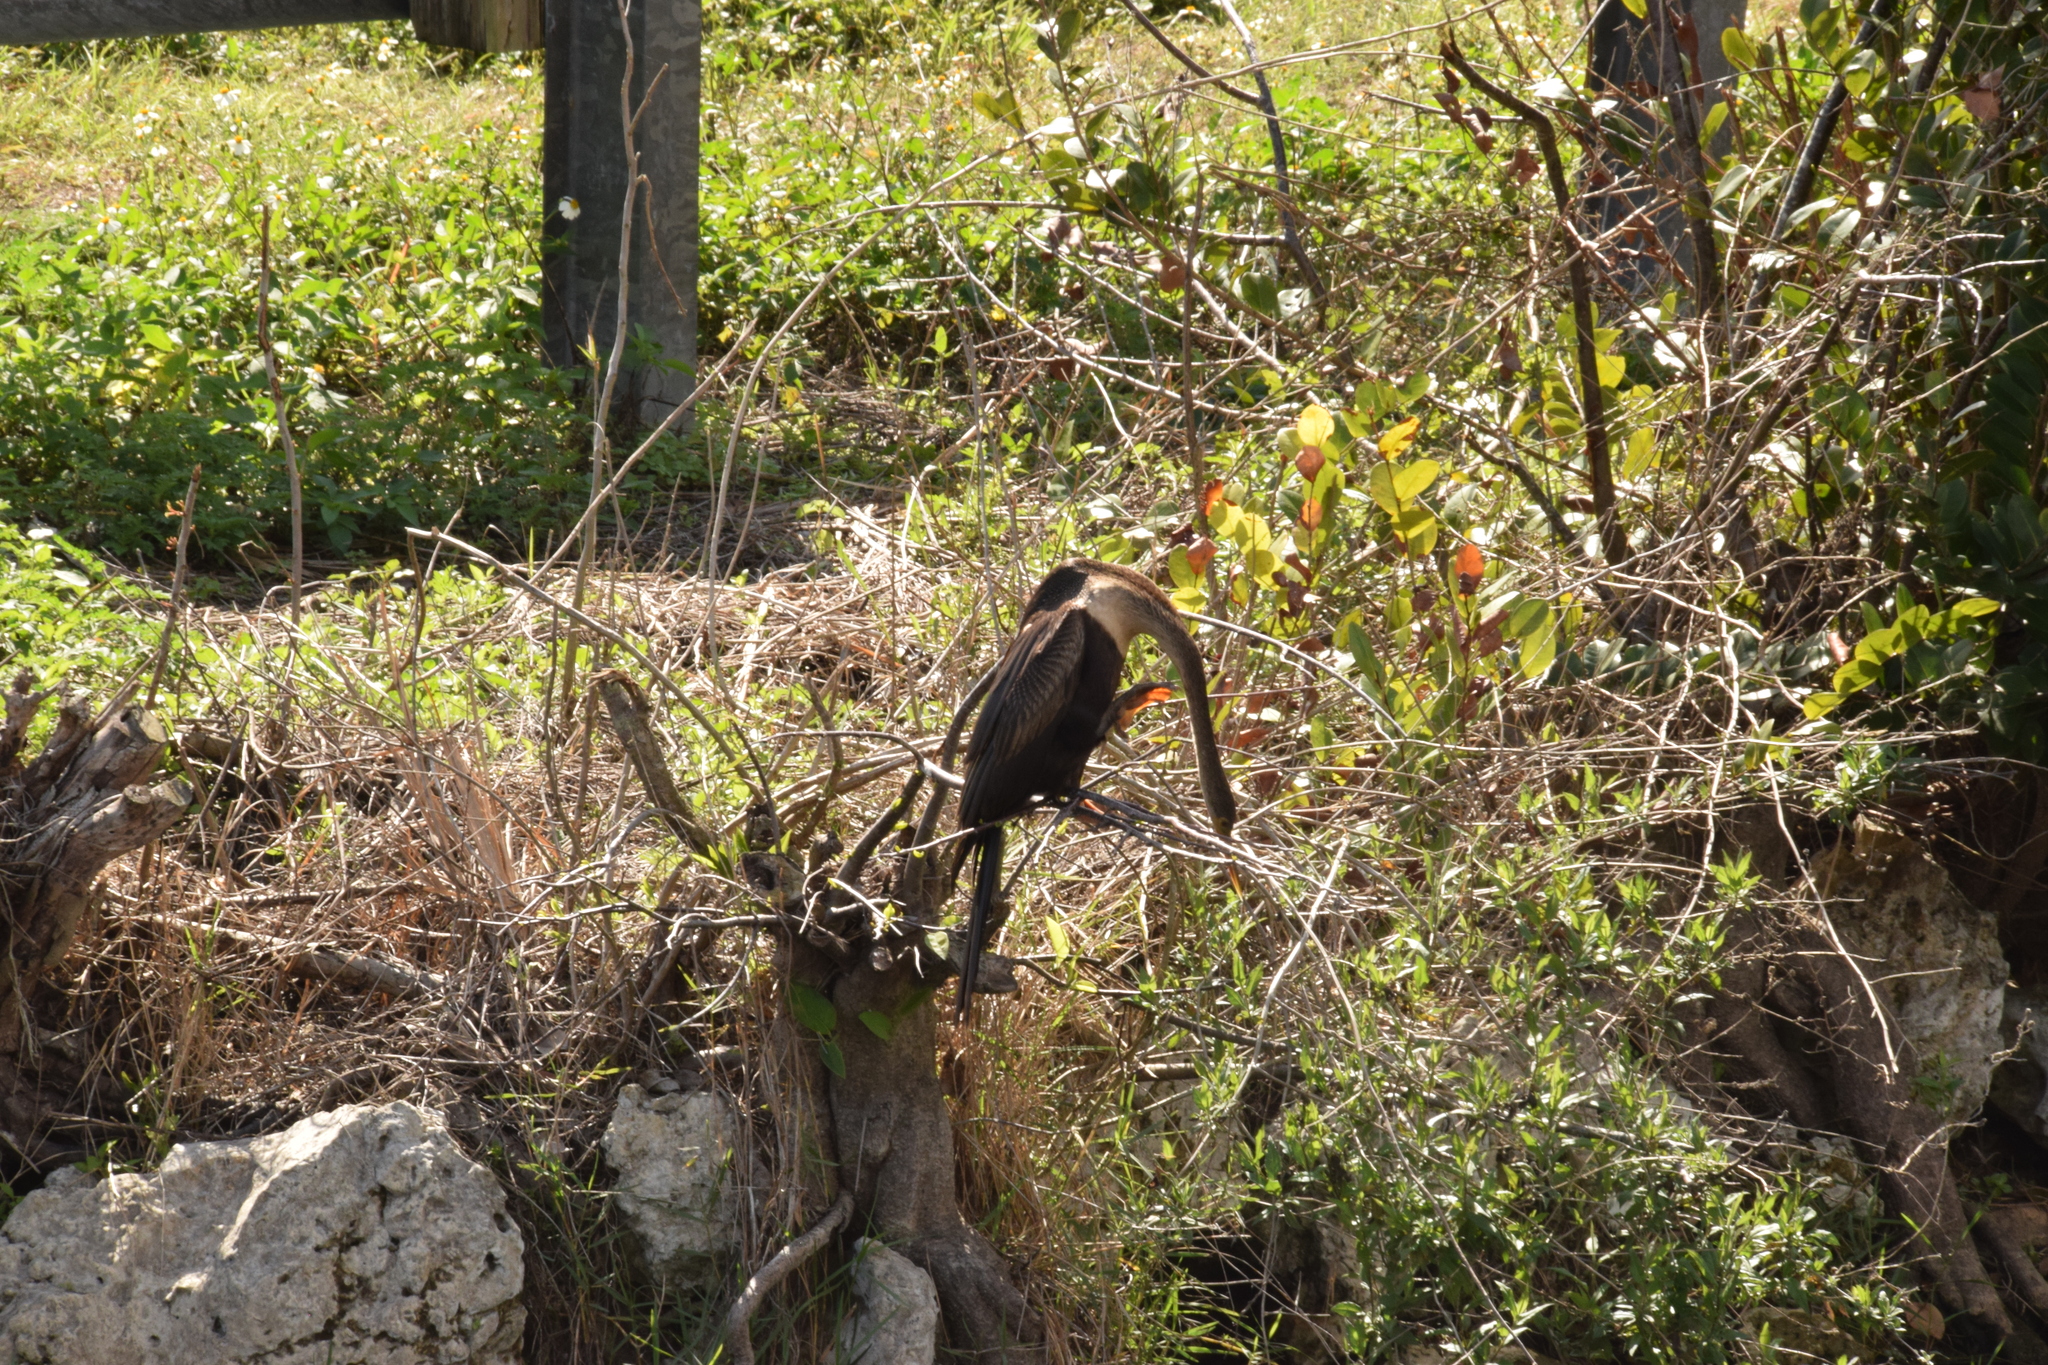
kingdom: Animalia
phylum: Chordata
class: Aves
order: Suliformes
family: Anhingidae
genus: Anhinga
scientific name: Anhinga anhinga
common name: Anhinga
